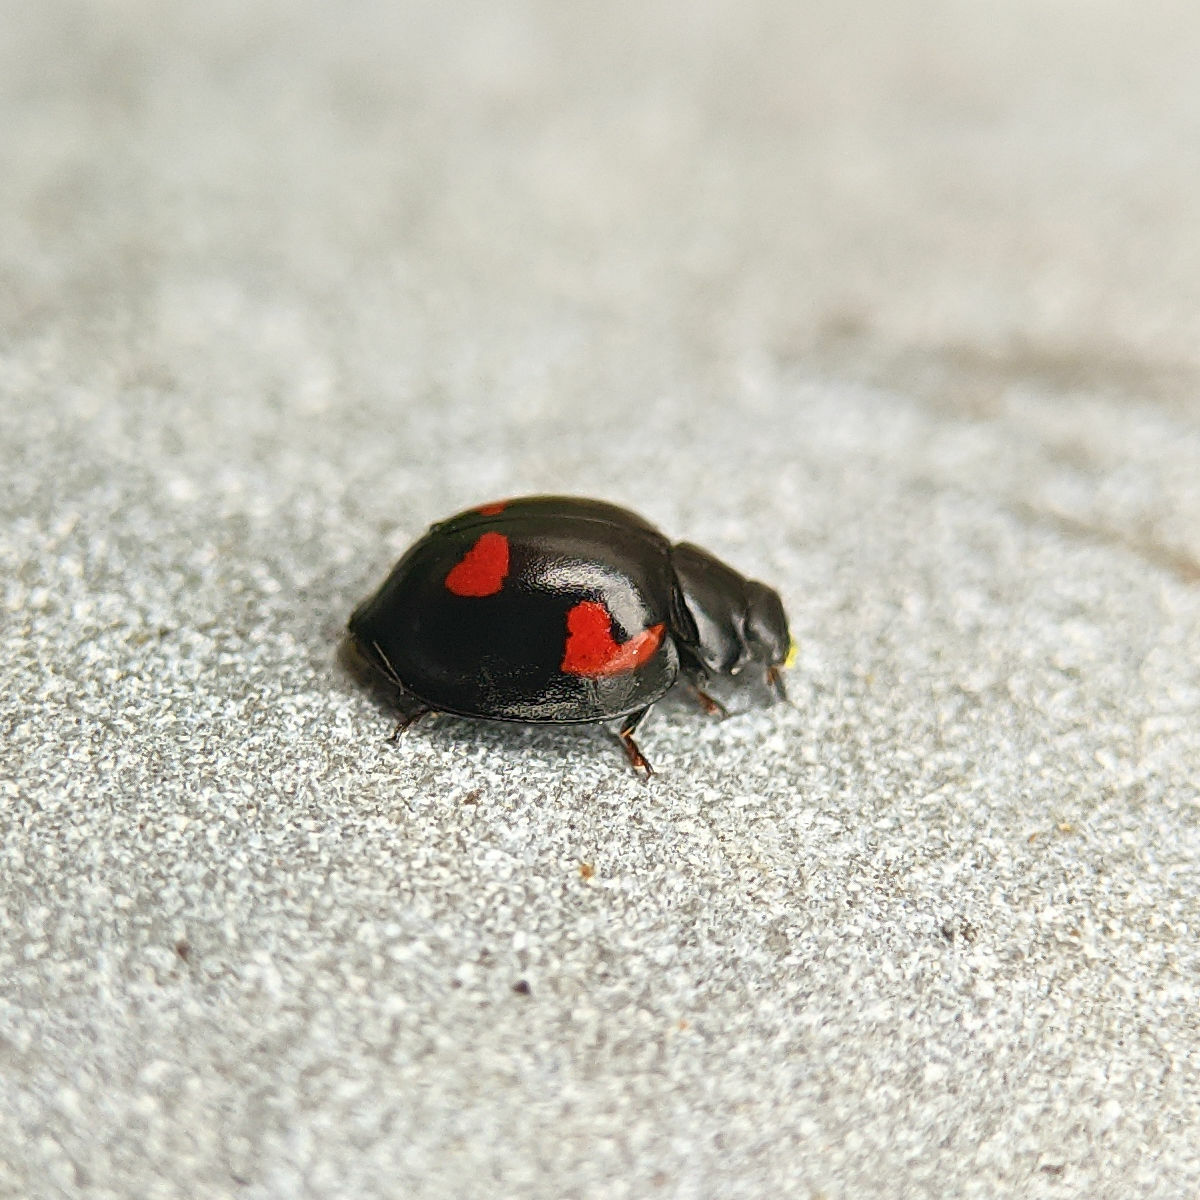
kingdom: Animalia
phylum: Arthropoda
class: Insecta
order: Coleoptera
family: Coccinellidae
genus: Brumus
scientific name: Brumus quadripustulatus
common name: Ladybird beetle
